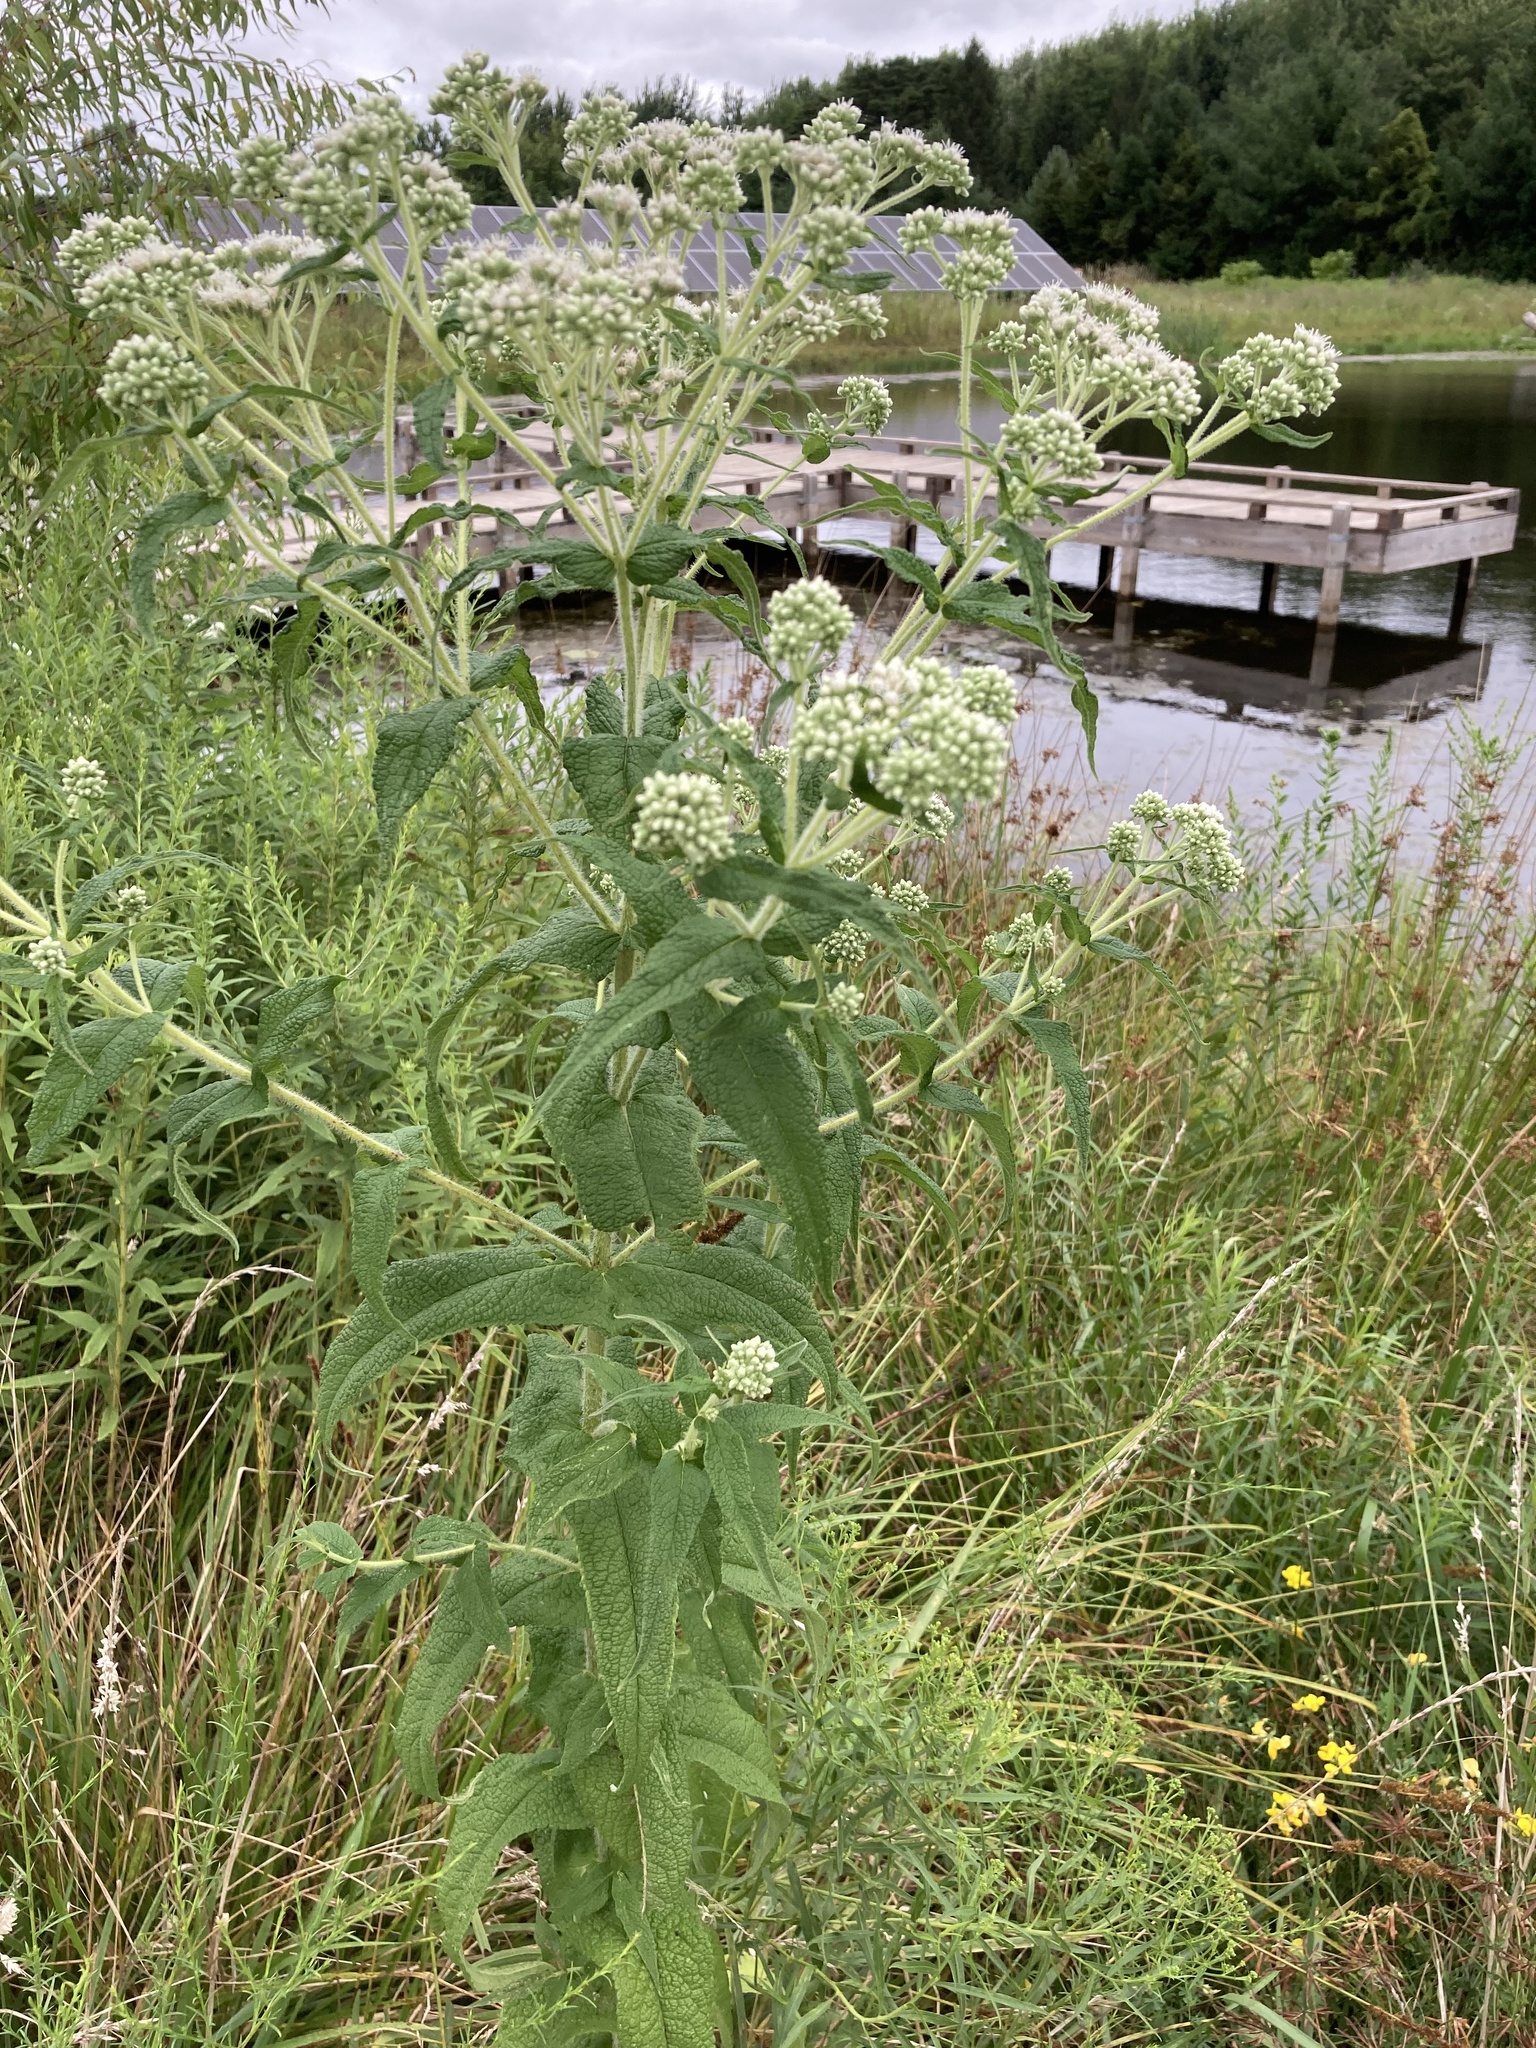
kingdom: Plantae
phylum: Tracheophyta
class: Magnoliopsida
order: Asterales
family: Asteraceae
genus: Eupatorium
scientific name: Eupatorium perfoliatum
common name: Boneset
